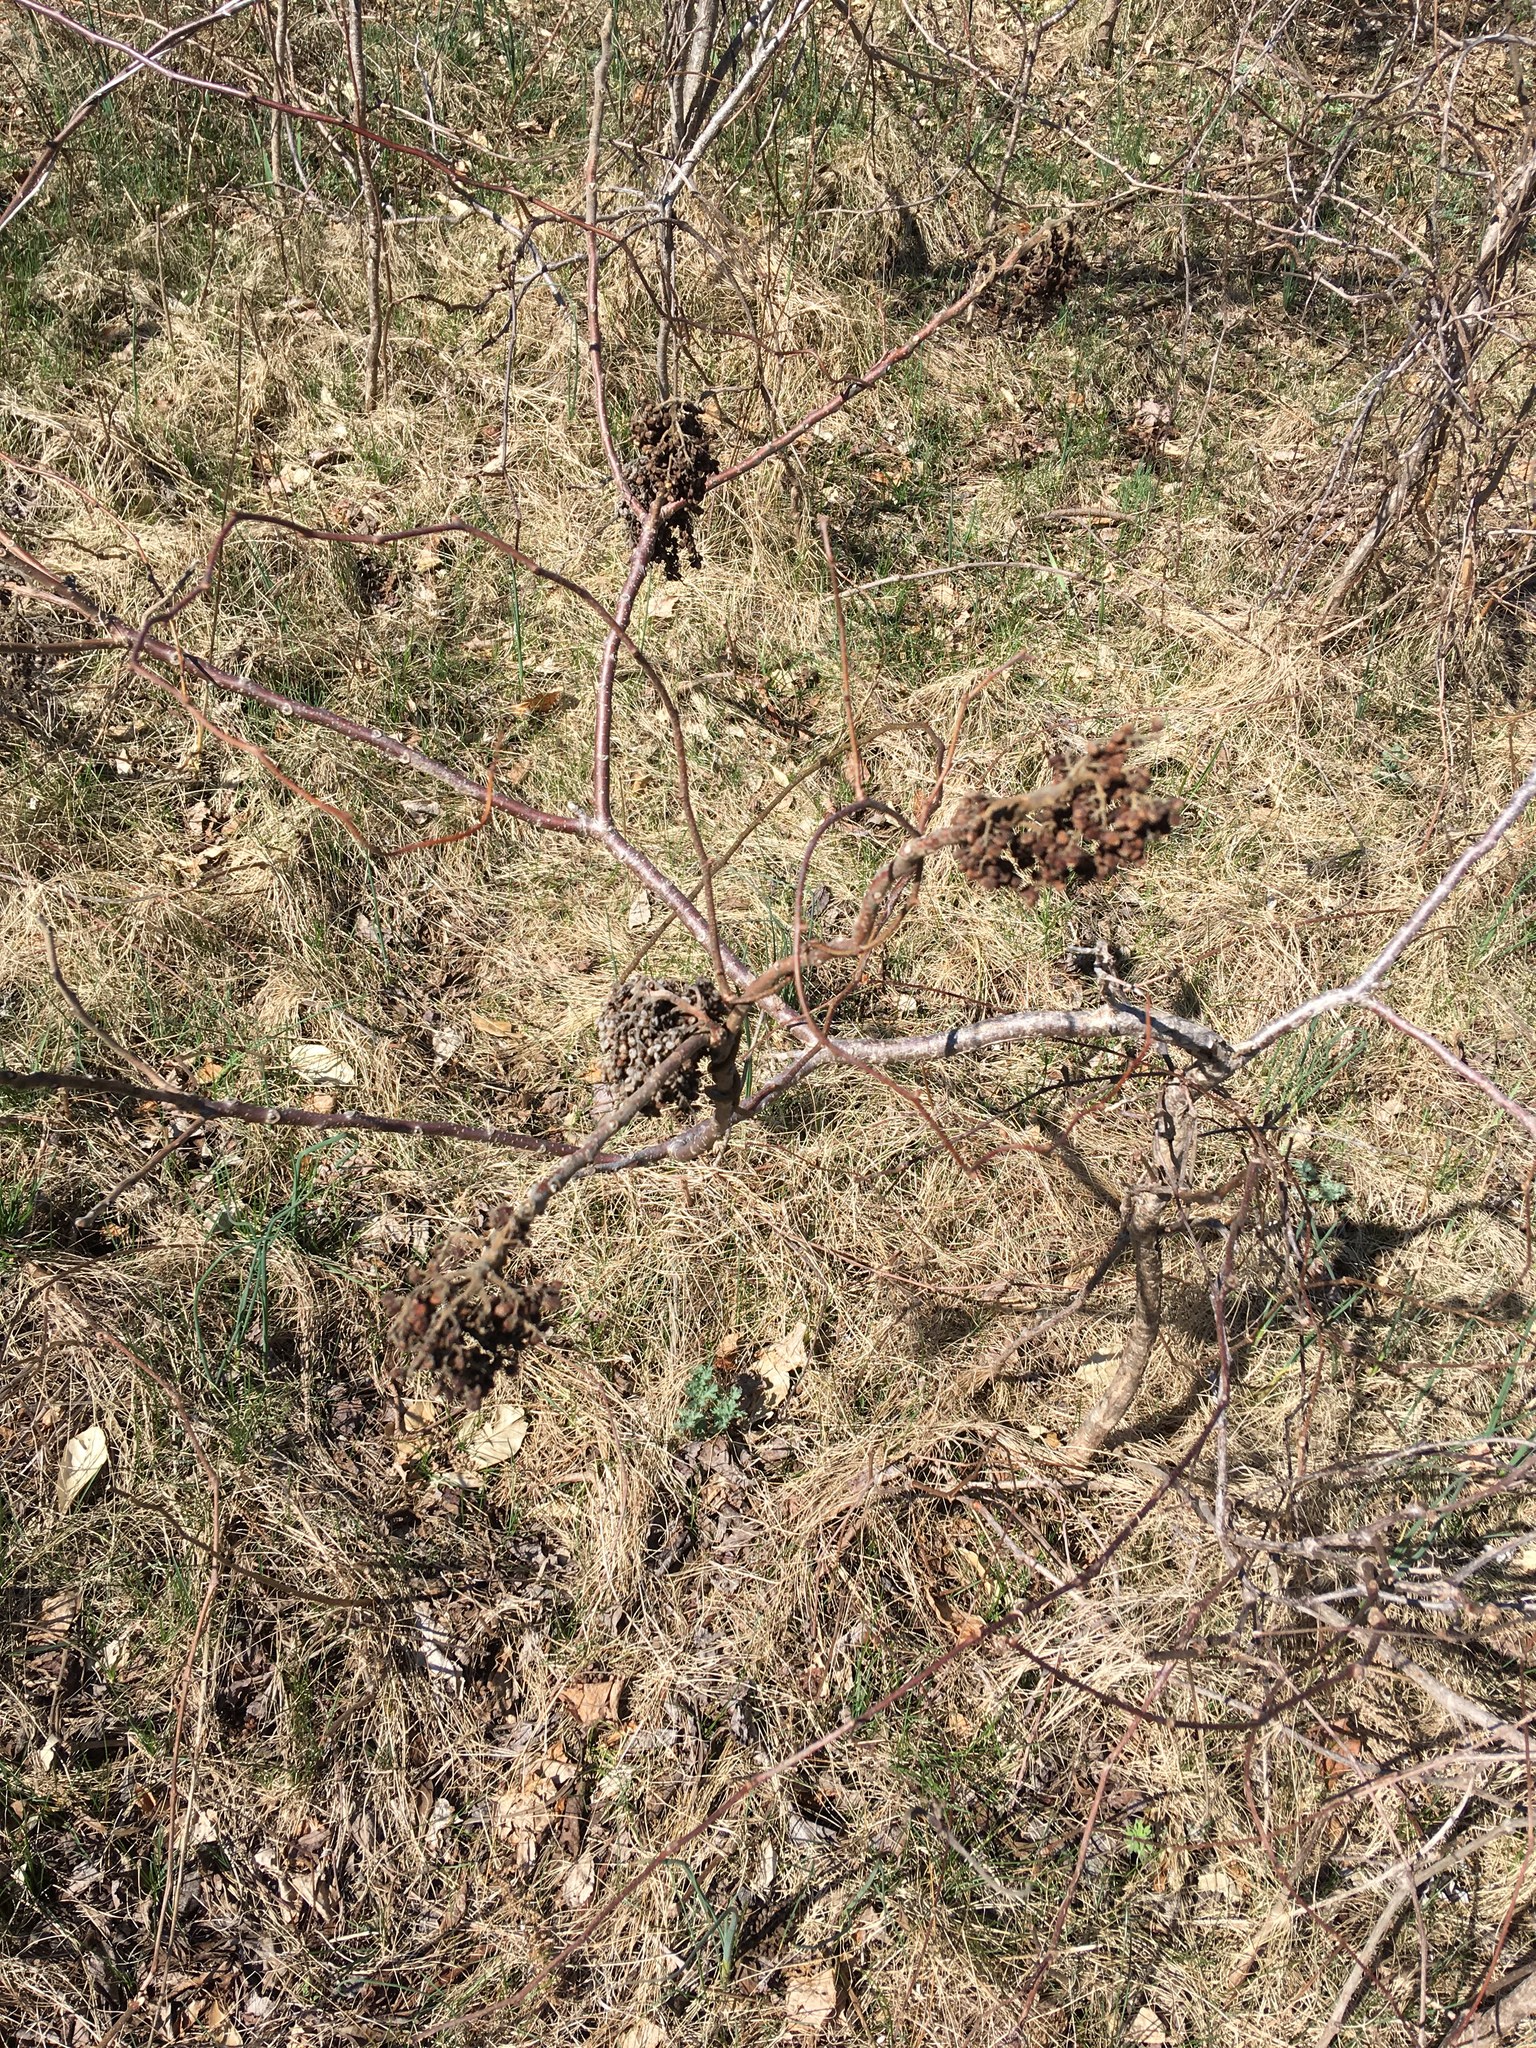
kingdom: Plantae
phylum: Tracheophyta
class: Magnoliopsida
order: Sapindales
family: Anacardiaceae
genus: Rhus
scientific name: Rhus copallina
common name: Shining sumac
